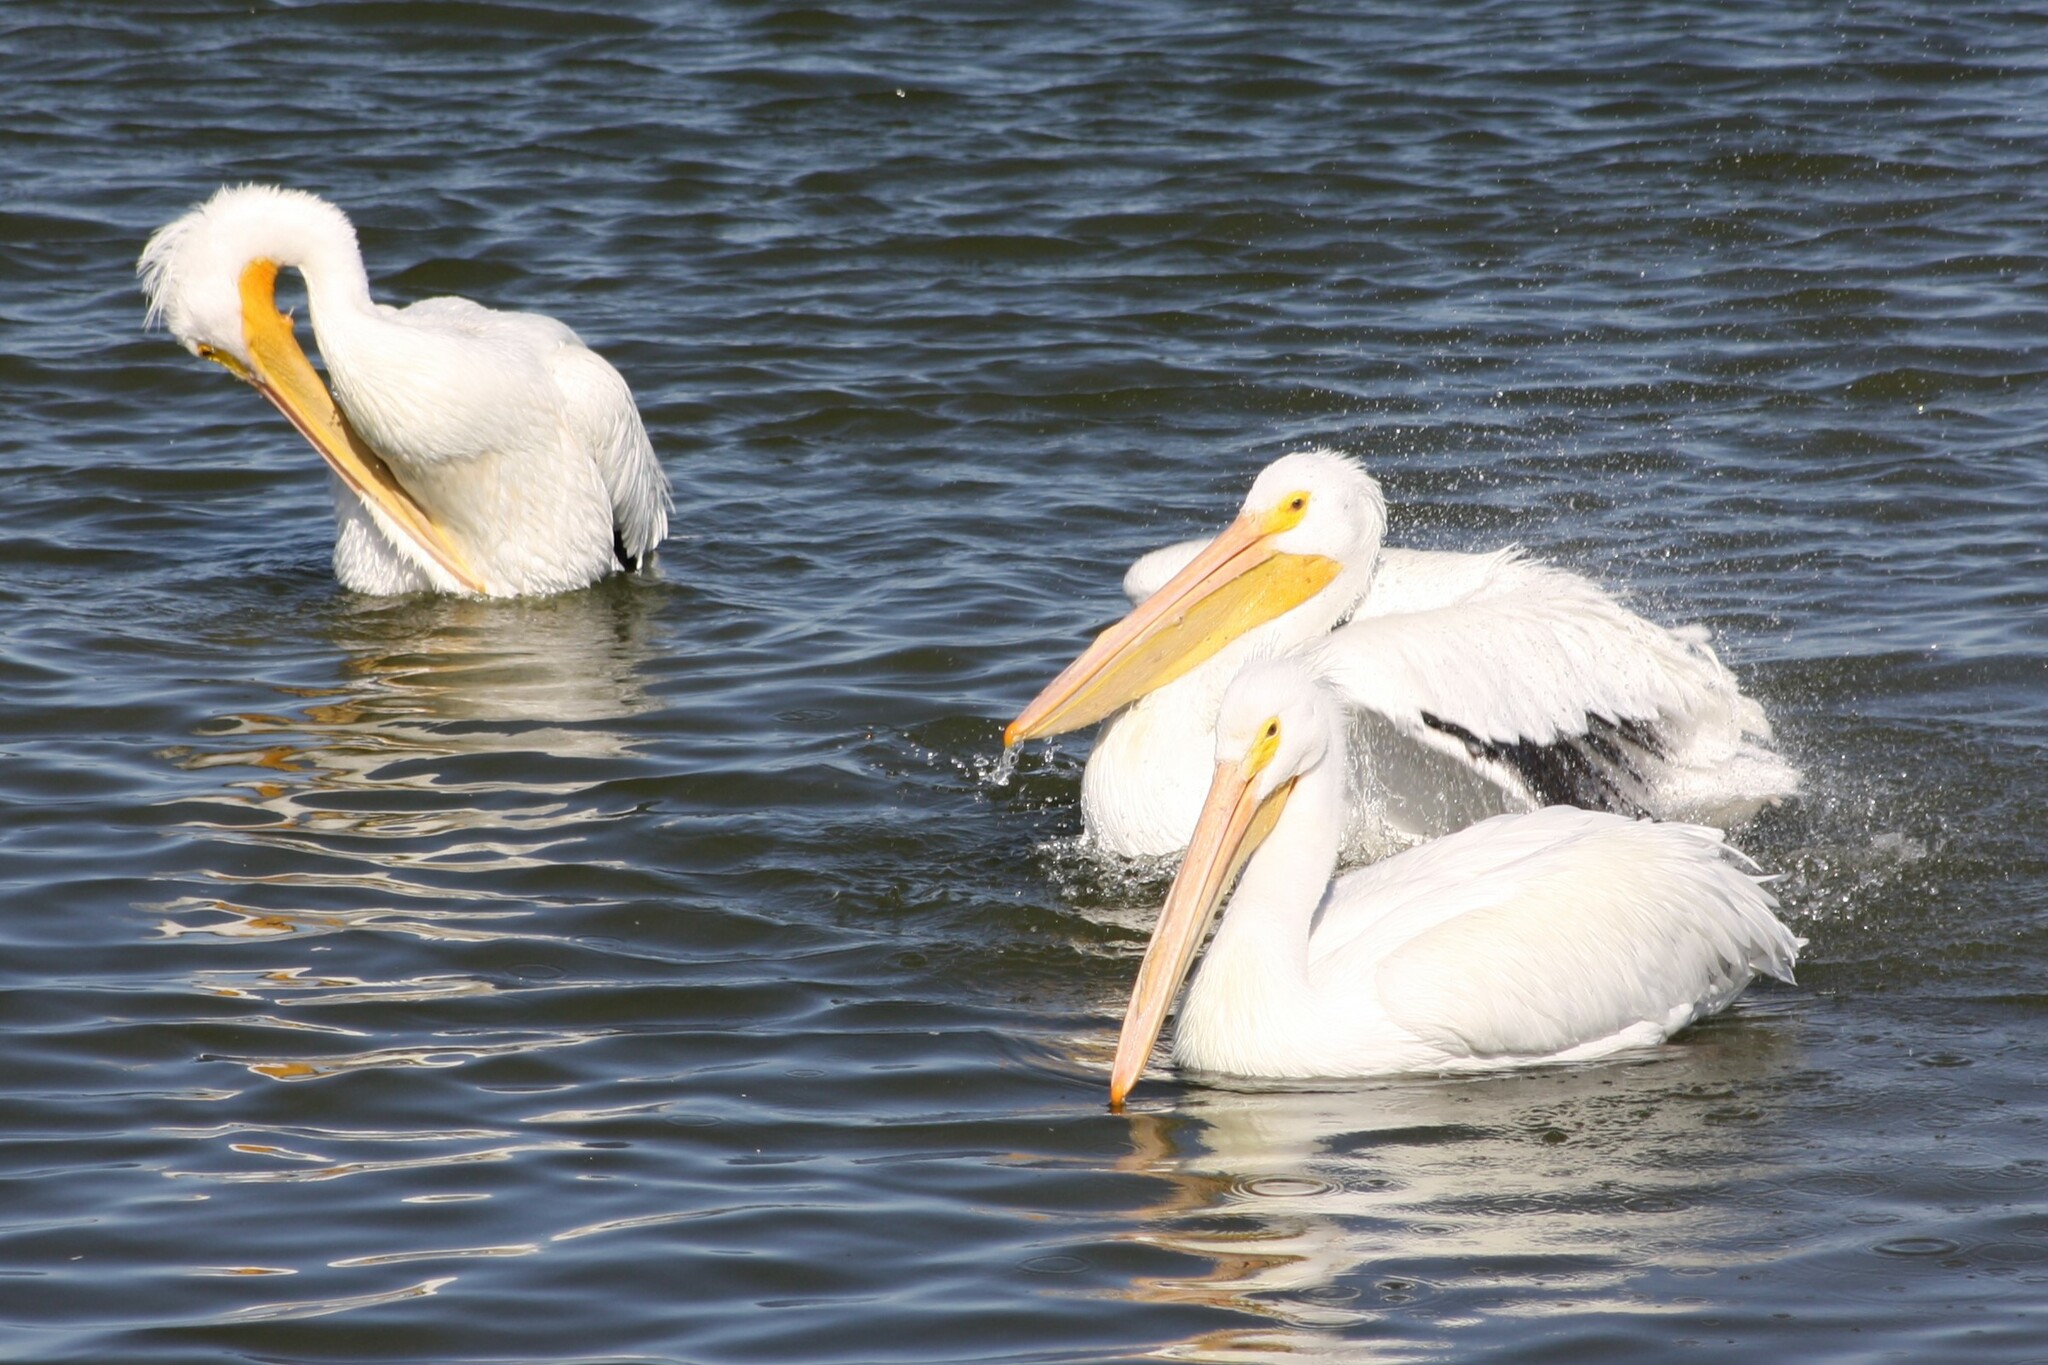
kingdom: Animalia
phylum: Chordata
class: Aves
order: Pelecaniformes
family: Pelecanidae
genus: Pelecanus
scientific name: Pelecanus erythrorhynchos
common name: American white pelican
